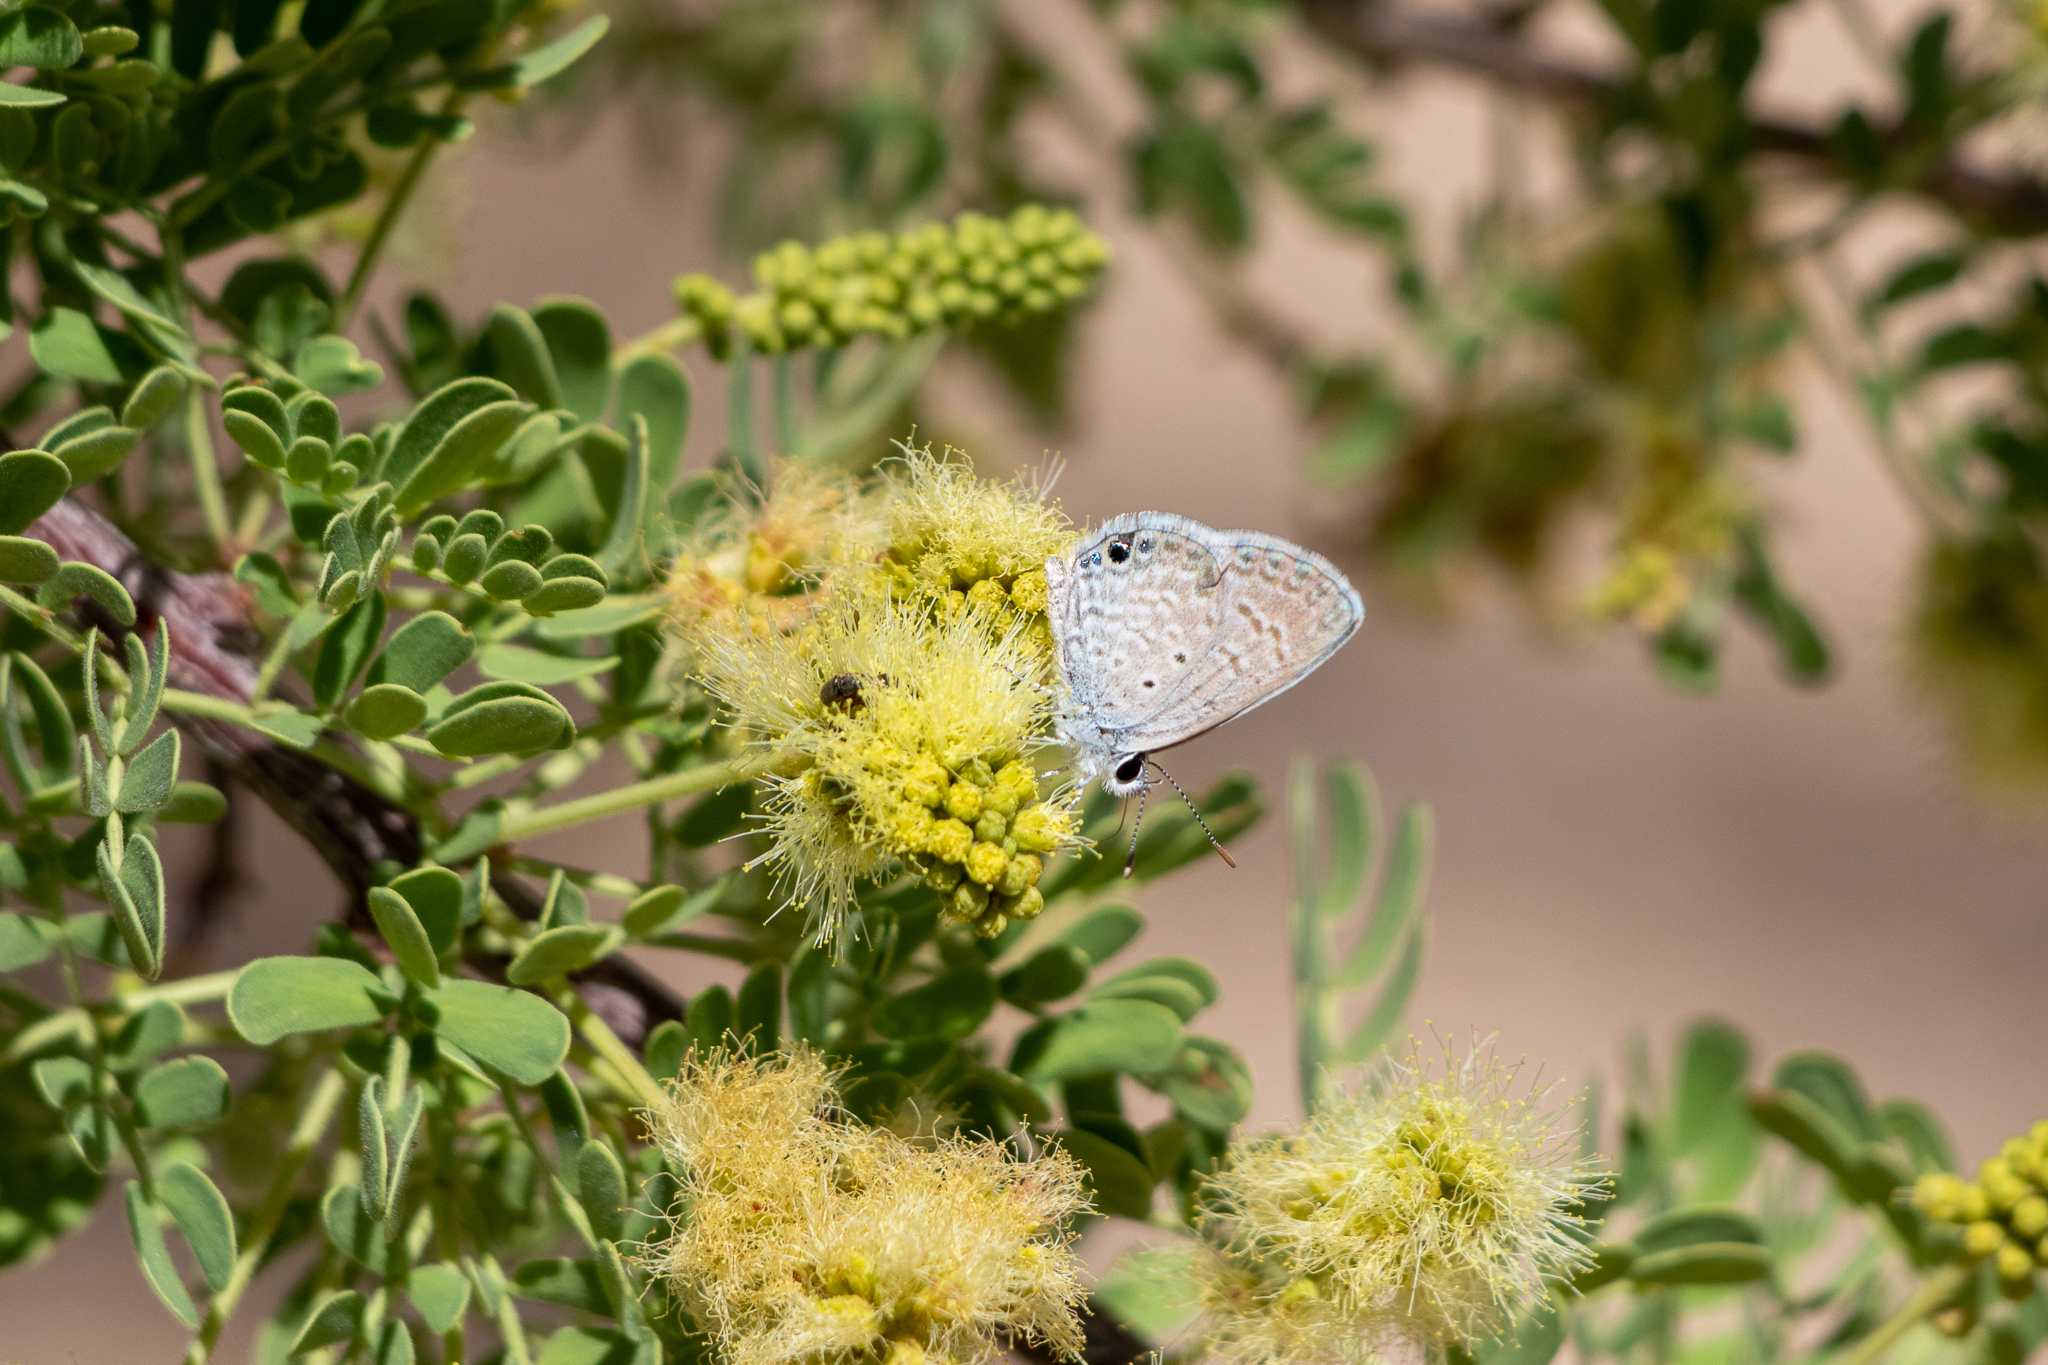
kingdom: Animalia
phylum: Arthropoda
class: Insecta
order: Lepidoptera
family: Lycaenidae
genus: Hemiargus
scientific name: Hemiargus ceraunus
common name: Ceraunus blue
